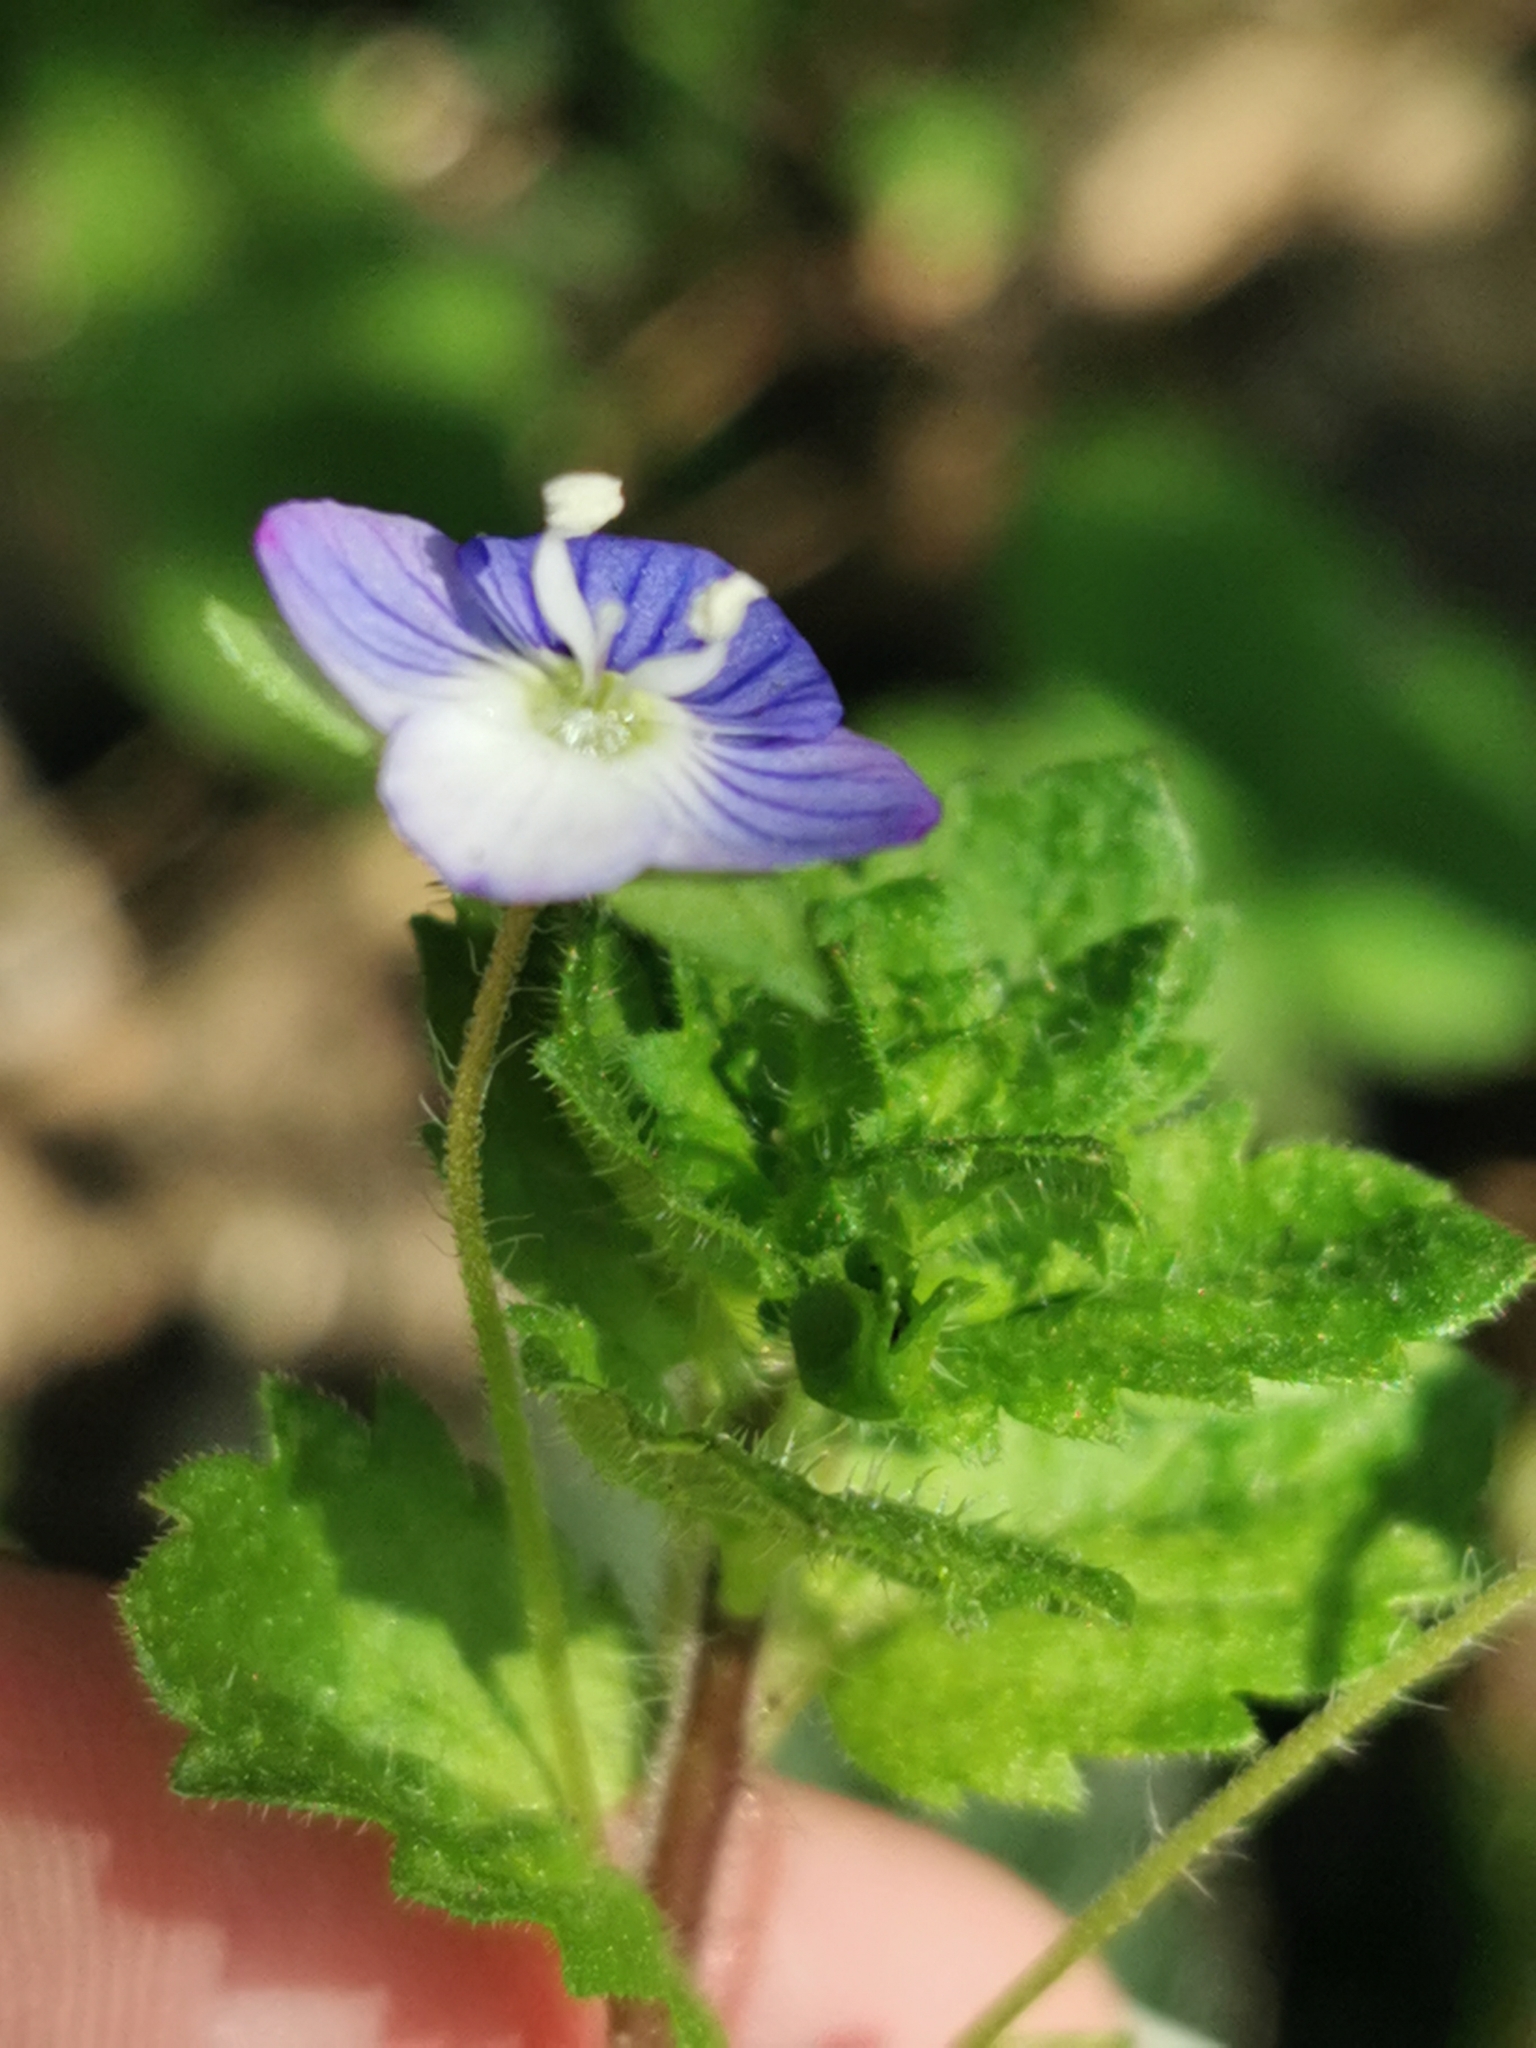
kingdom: Plantae
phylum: Tracheophyta
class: Magnoliopsida
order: Lamiales
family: Plantaginaceae
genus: Veronica
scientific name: Veronica persica
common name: Common field-speedwell
